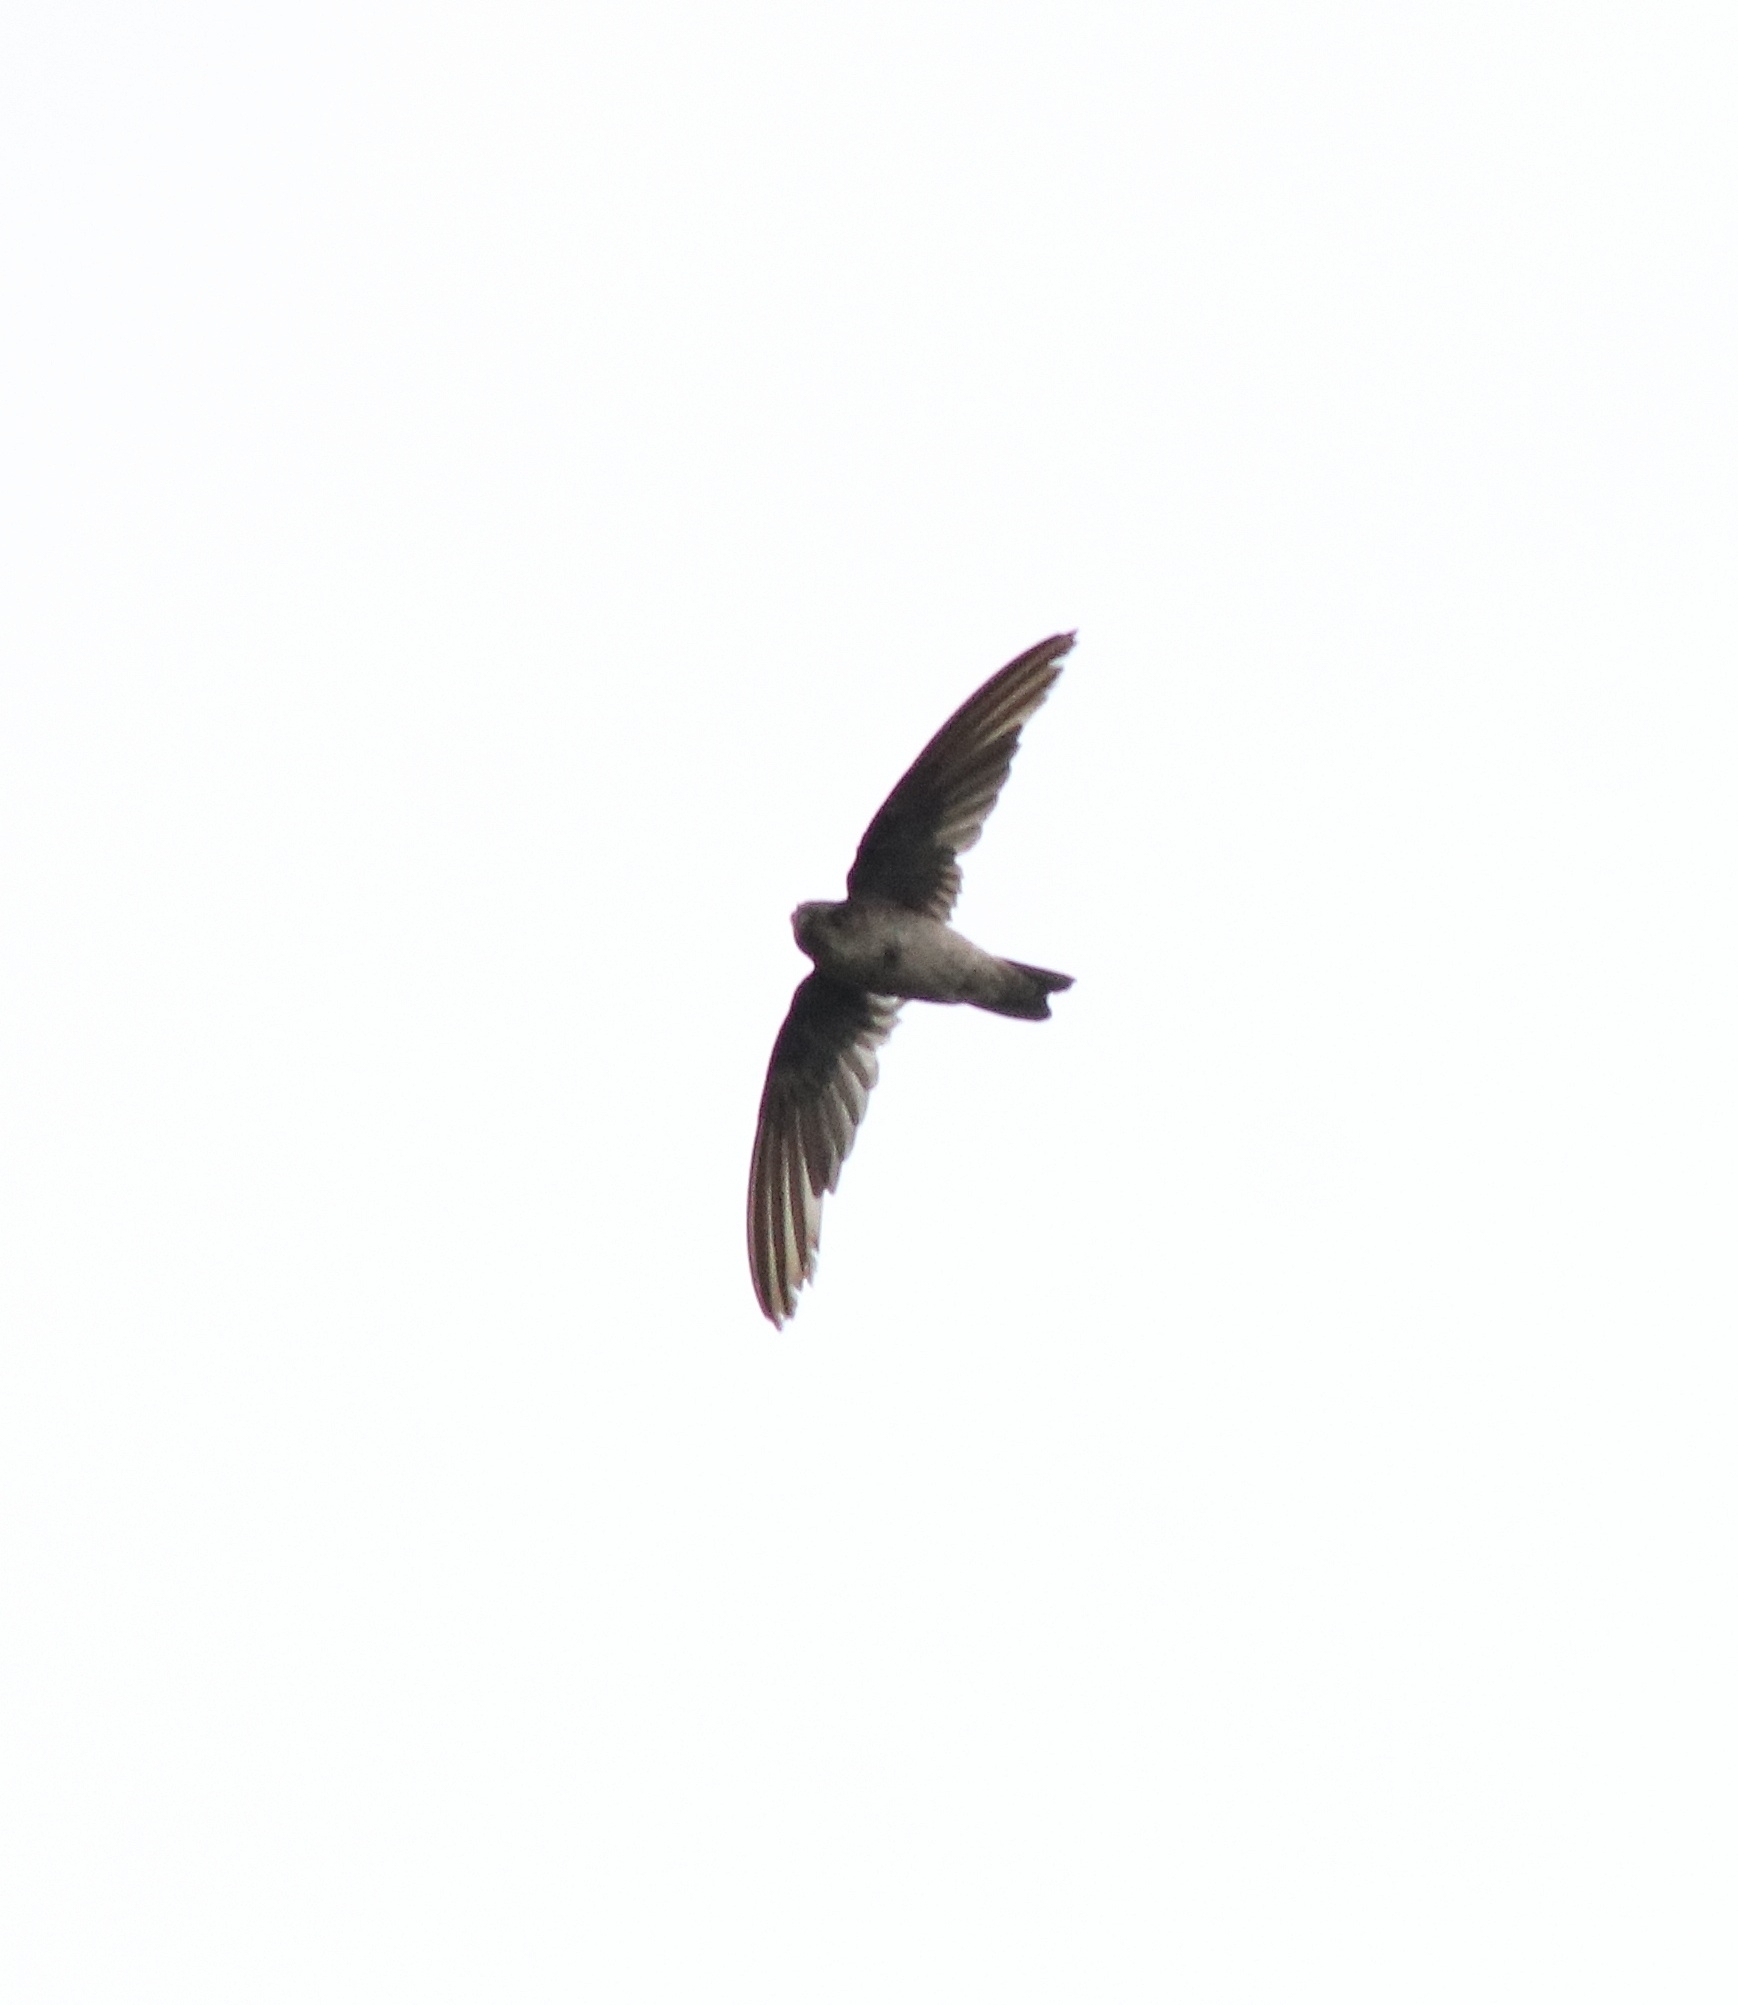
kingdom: Animalia
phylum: Chordata
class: Aves
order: Apodiformes
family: Apodidae
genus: Aerodramus
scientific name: Aerodramus unicolor
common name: Indian swiftlet
